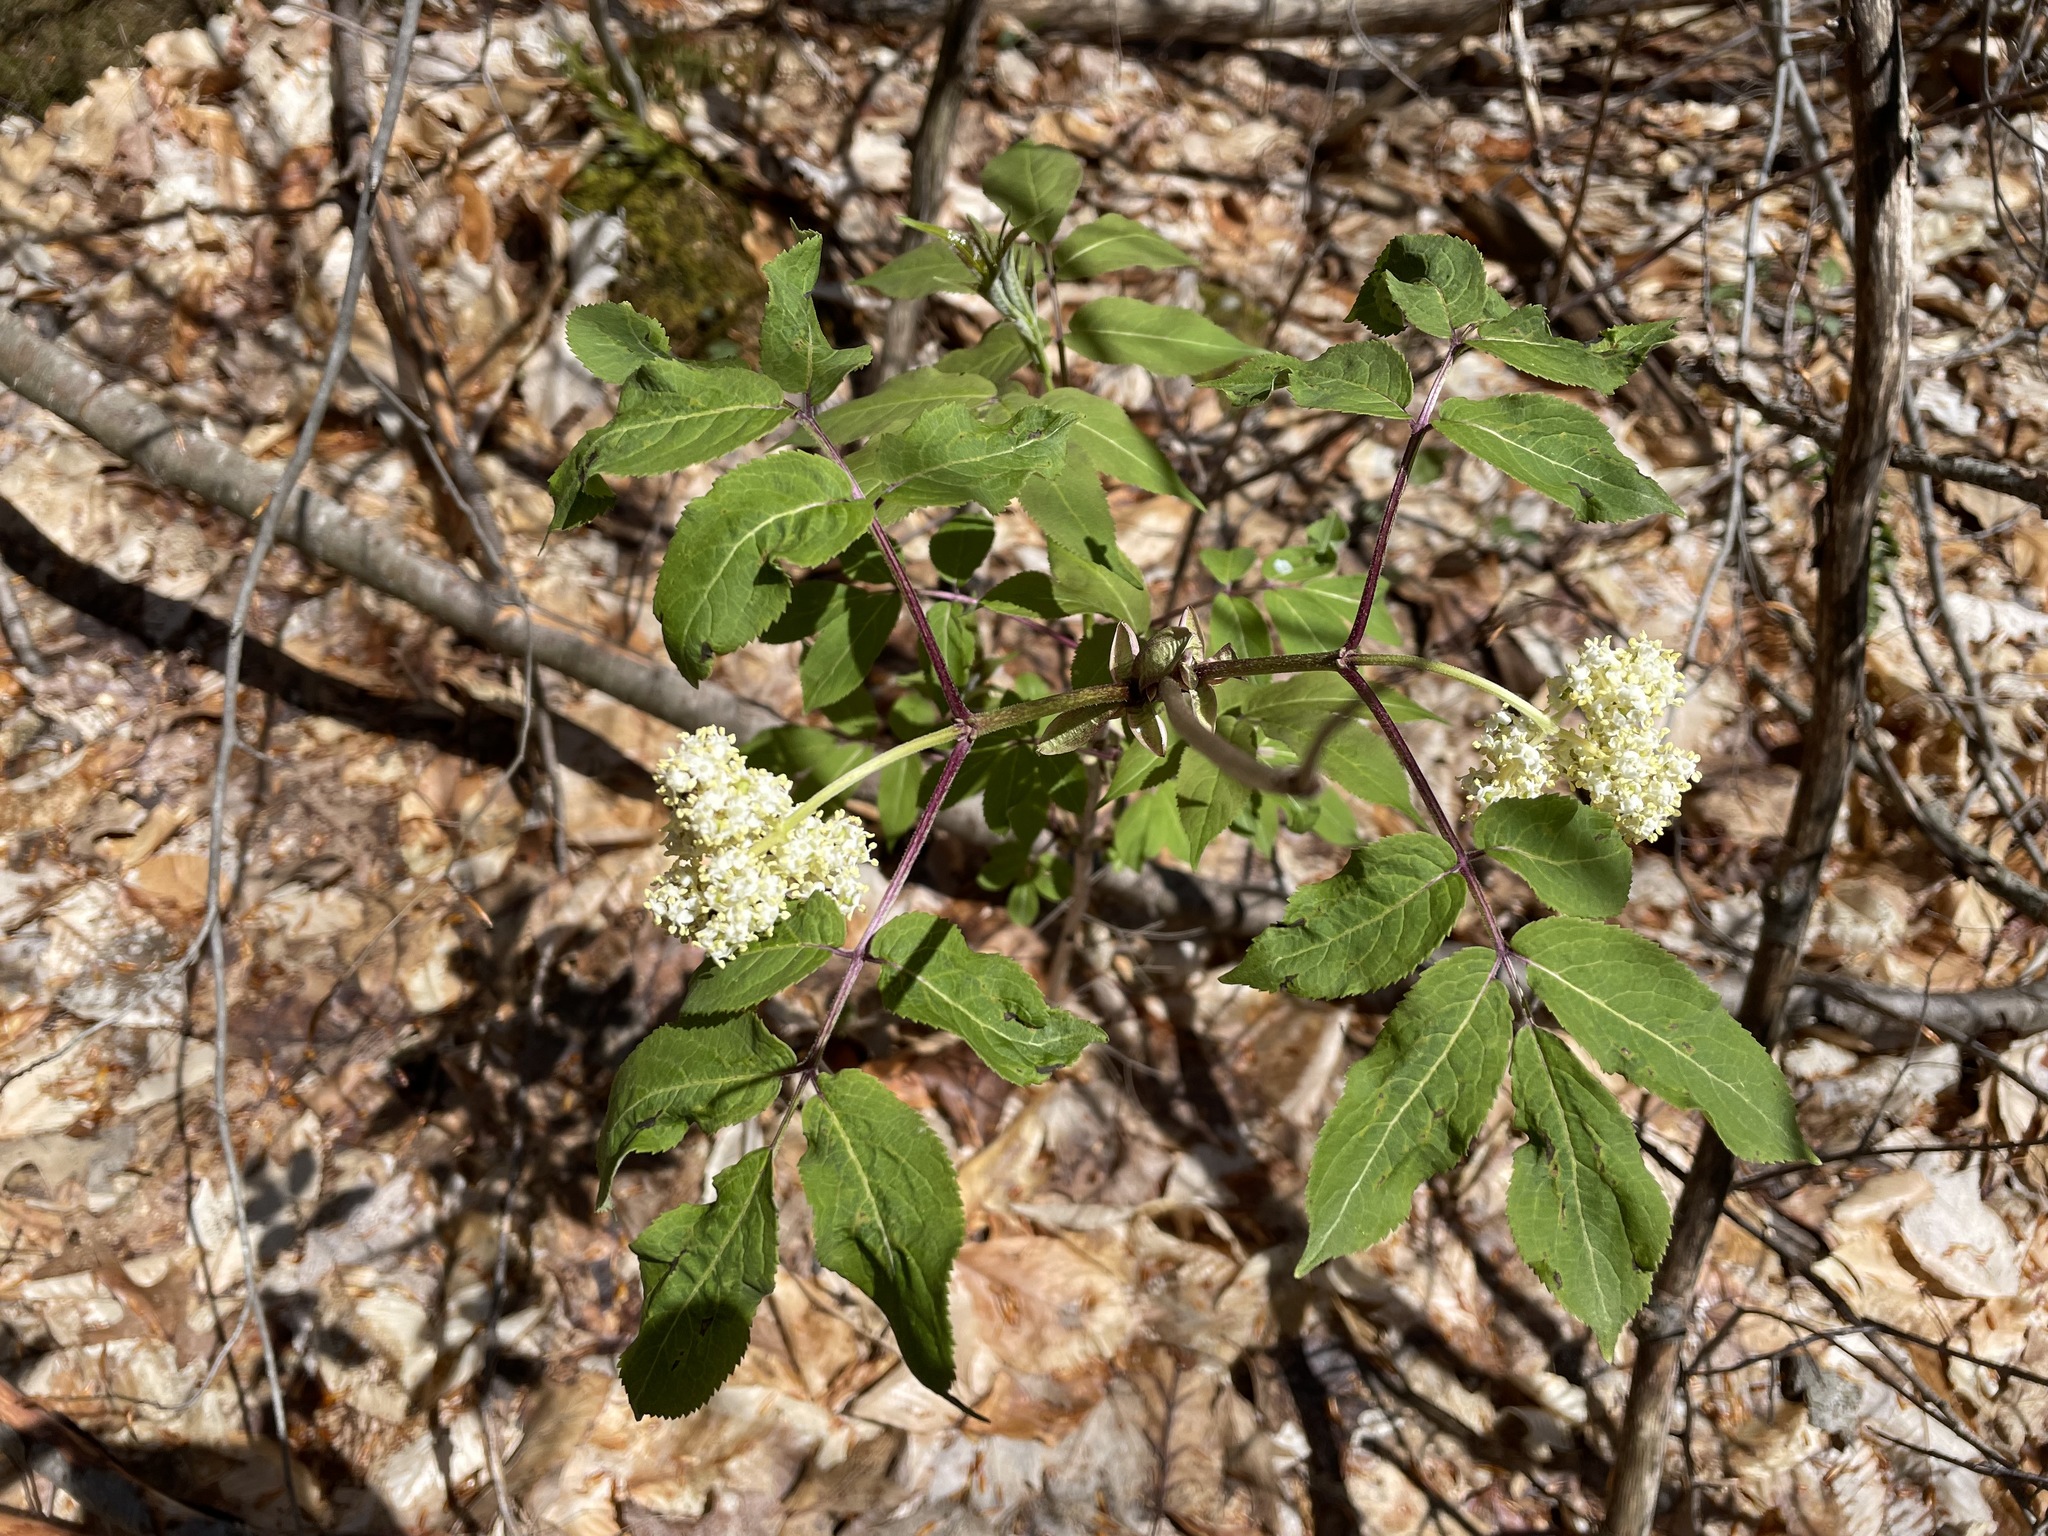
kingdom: Plantae
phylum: Tracheophyta
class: Magnoliopsida
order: Dipsacales
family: Viburnaceae
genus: Sambucus
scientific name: Sambucus racemosa
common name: Red-berried elder
